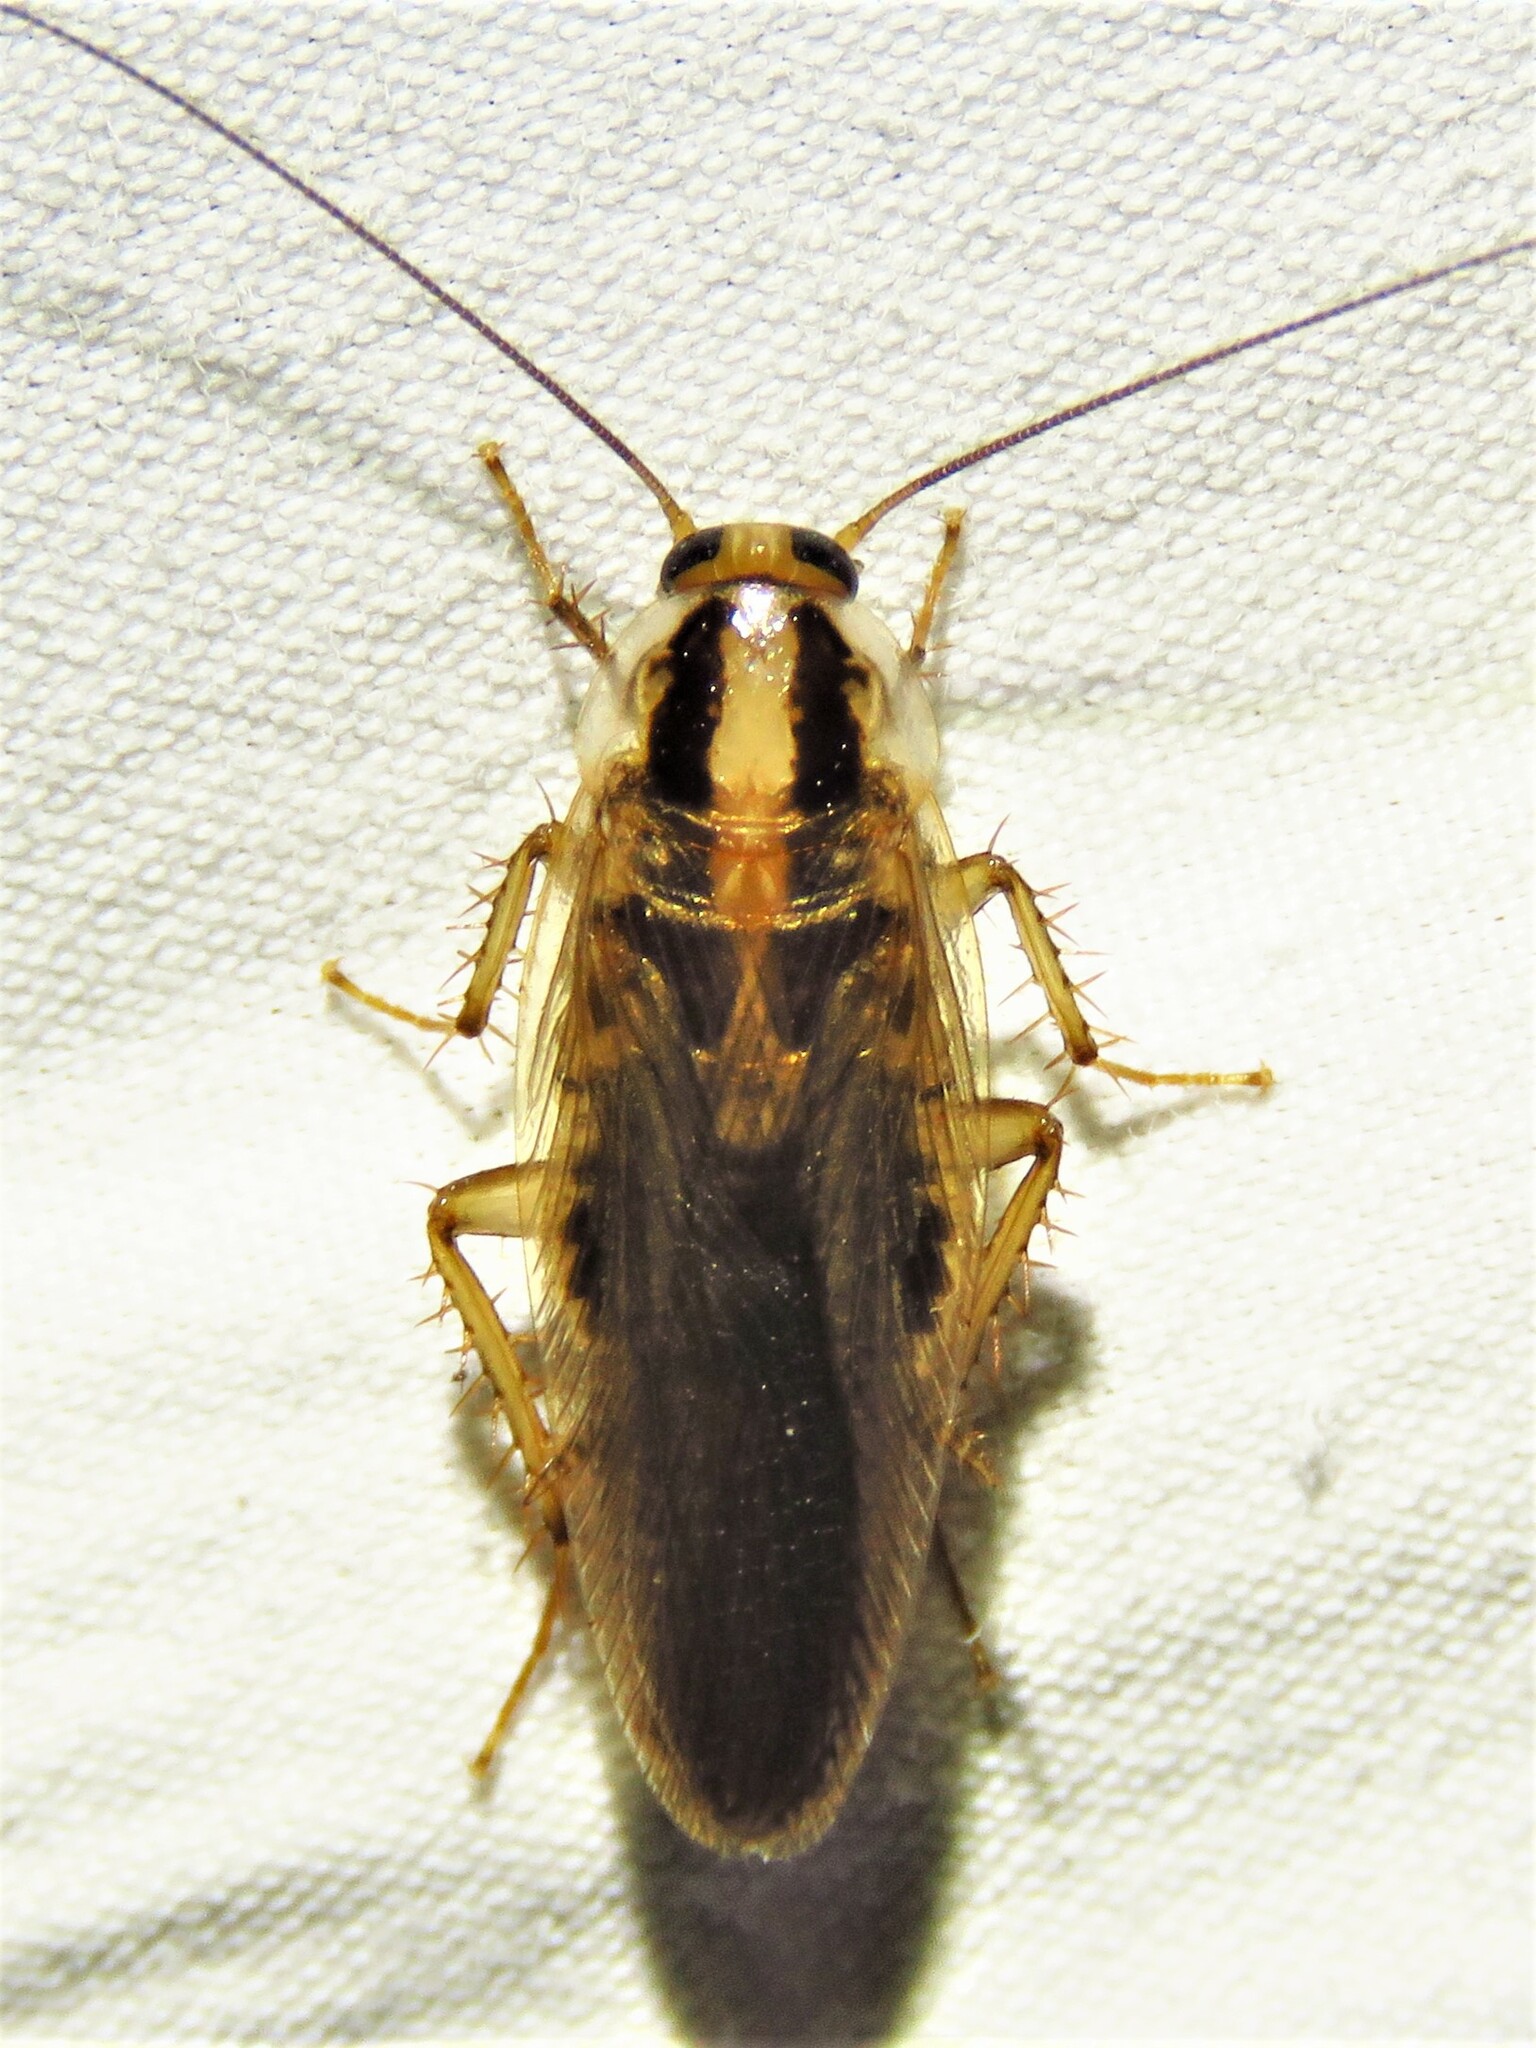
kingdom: Animalia
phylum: Arthropoda
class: Insecta
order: Blattodea
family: Ectobiidae
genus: Blattella
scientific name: Blattella asahinai
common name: Asian cockroach
